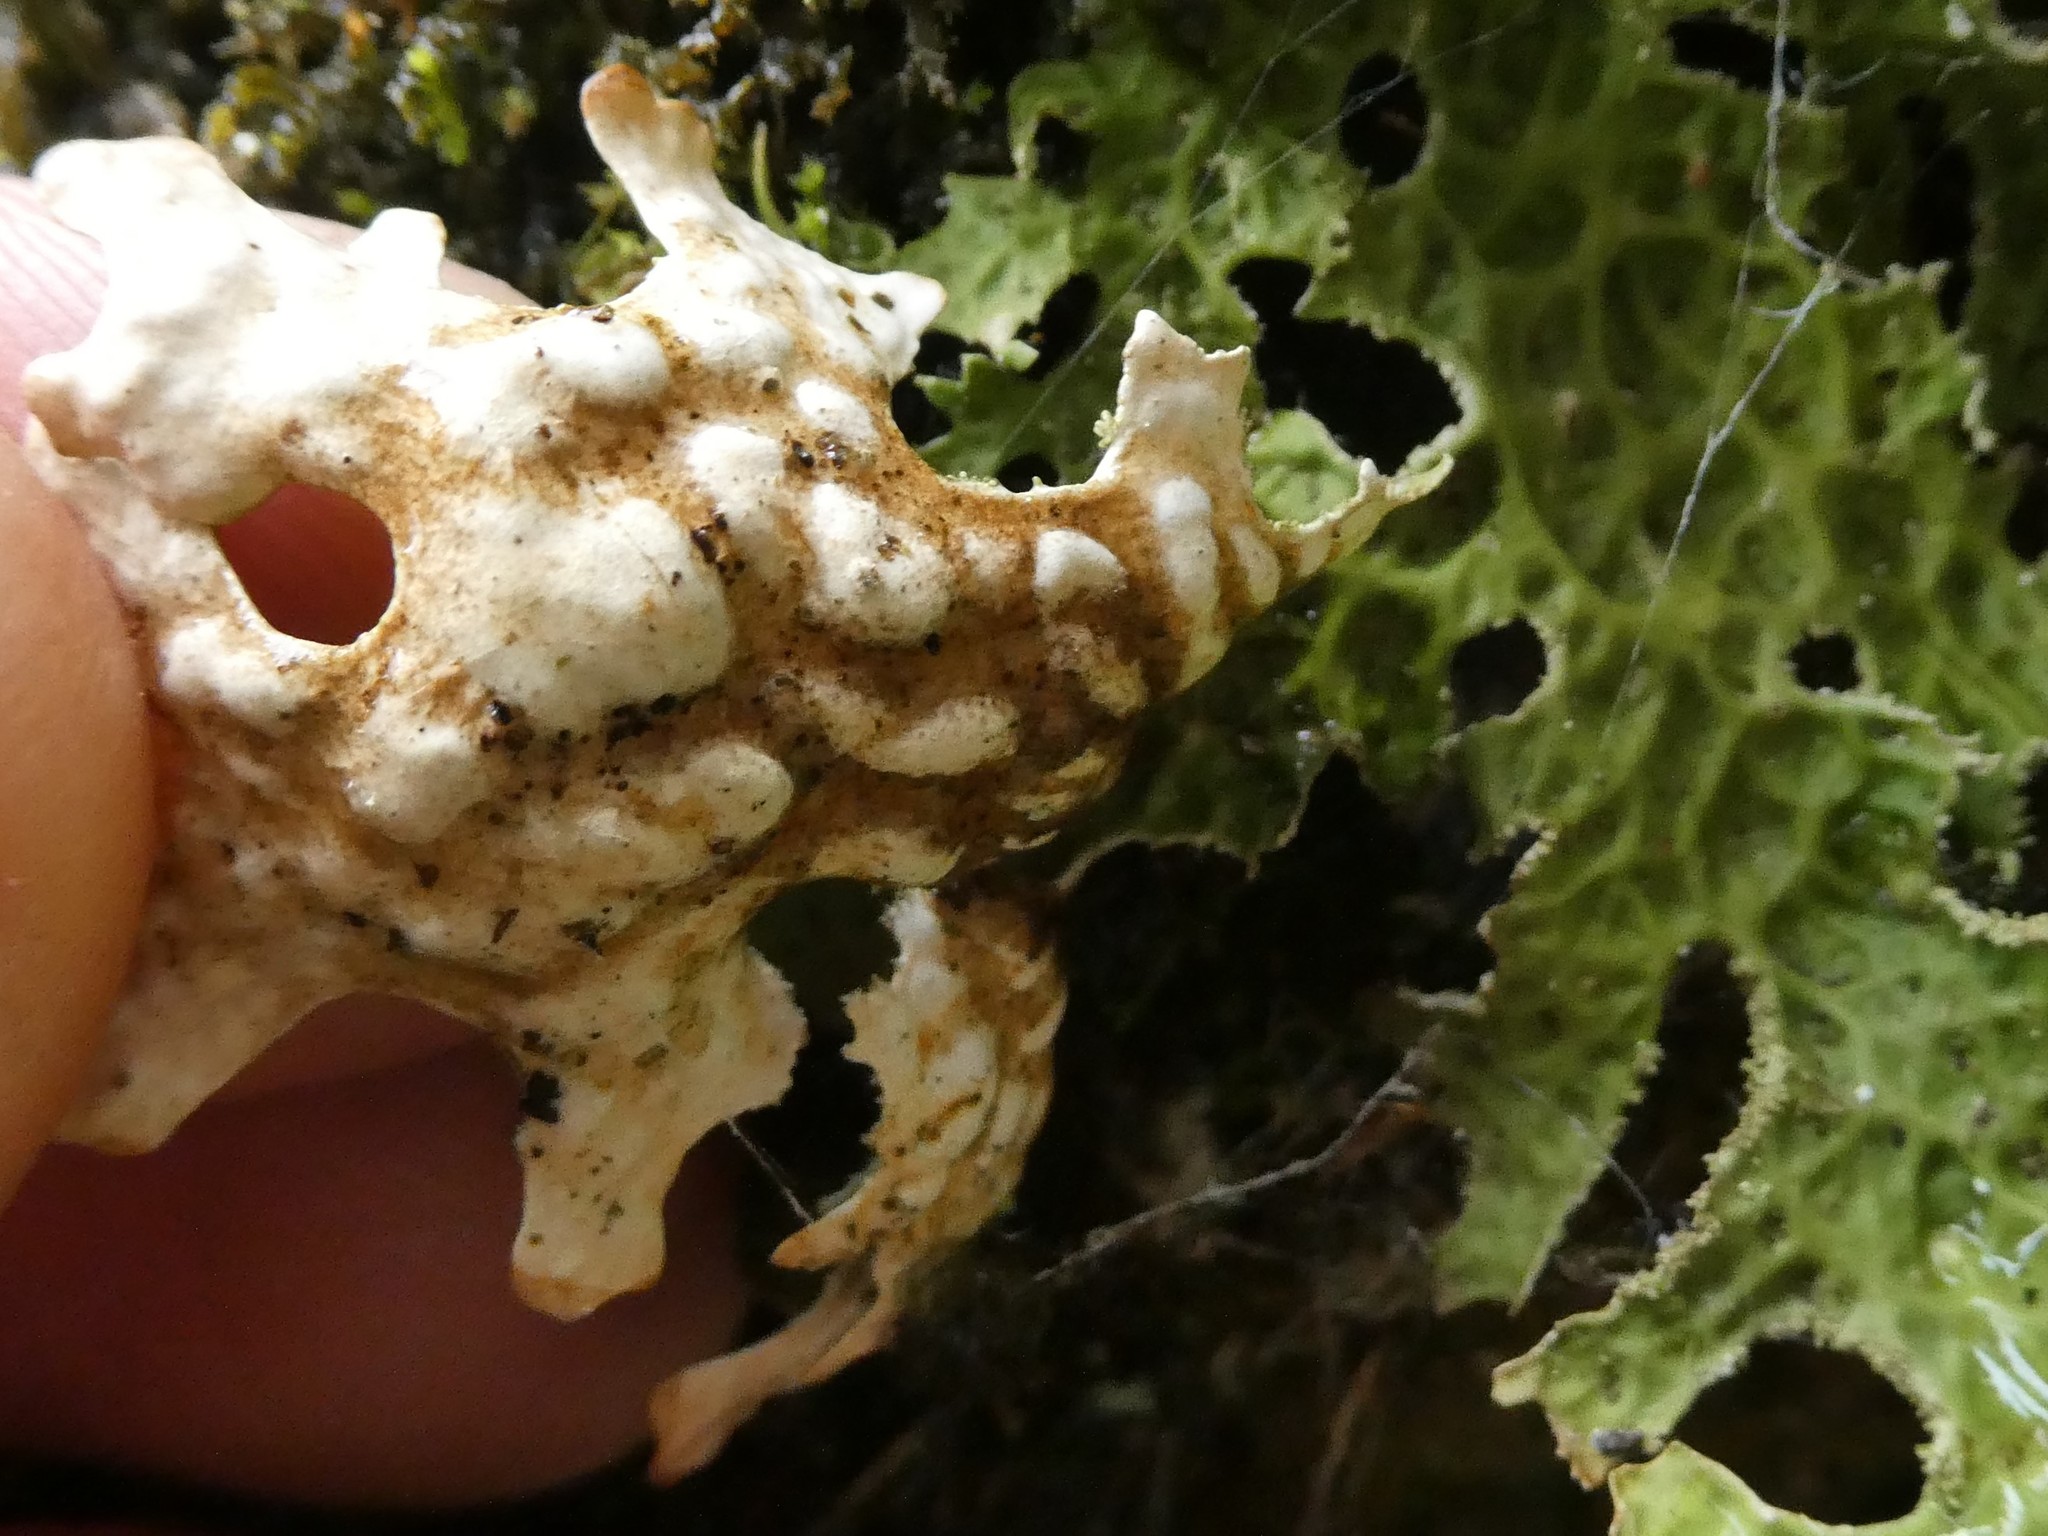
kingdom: Fungi
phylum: Ascomycota
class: Lecanoromycetes
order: Peltigerales
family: Lobariaceae
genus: Lobaria
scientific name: Lobaria pulmonaria
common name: Lungwort
